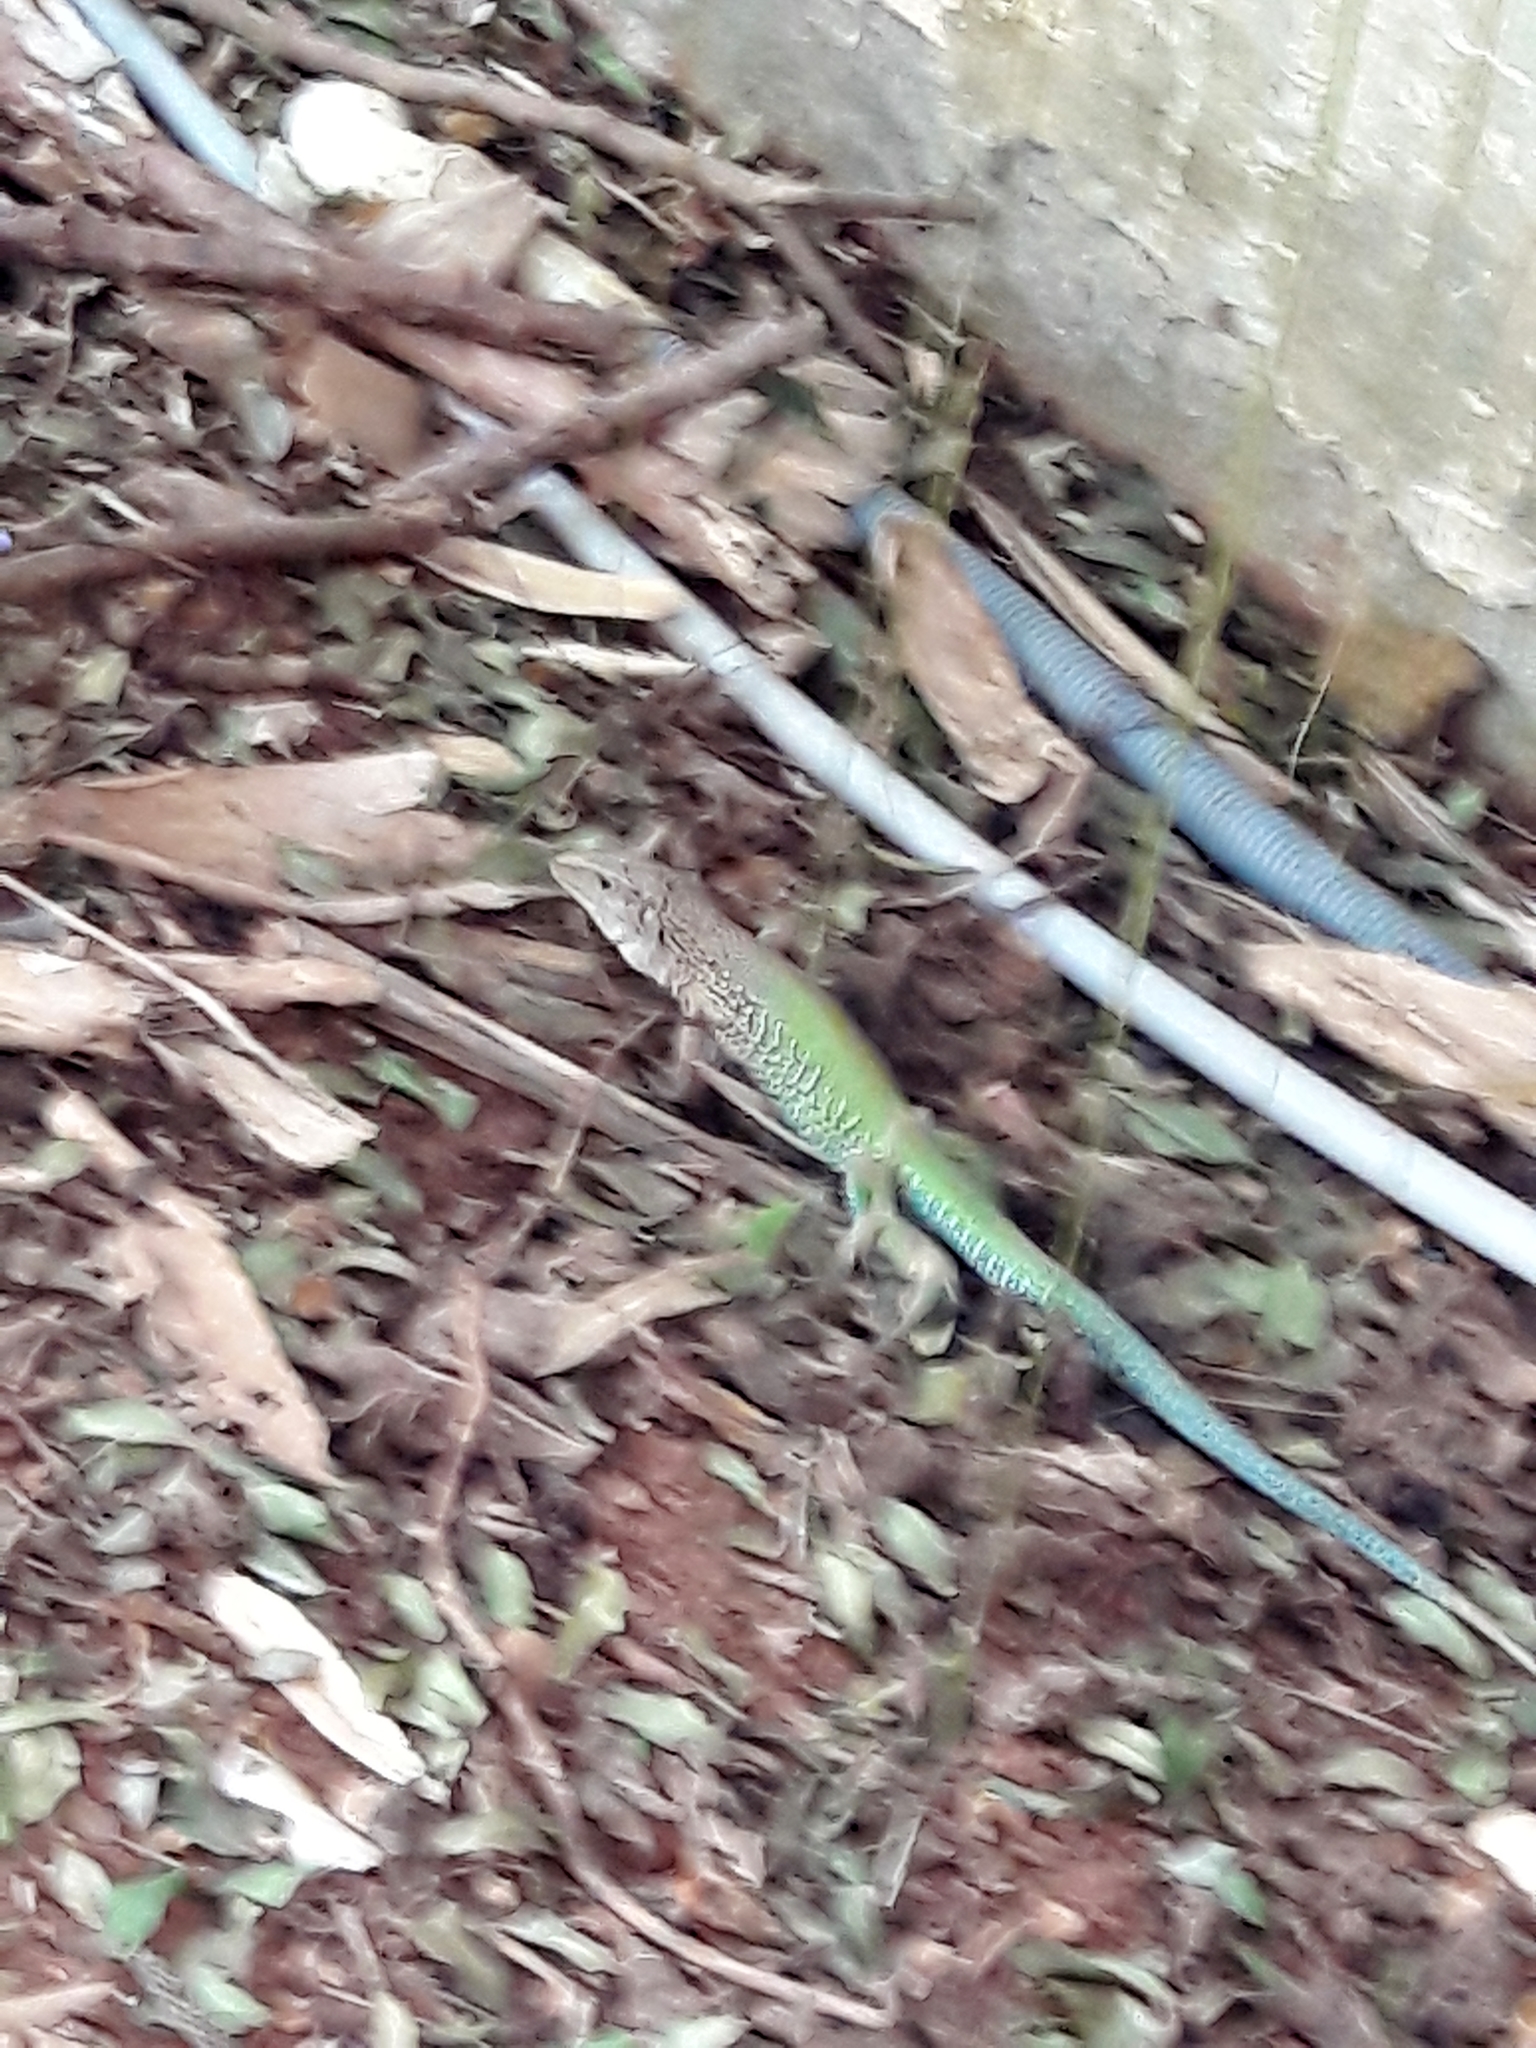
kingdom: Animalia
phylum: Chordata
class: Squamata
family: Teiidae
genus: Ameiva
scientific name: Ameiva ameiva
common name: Giant ameiva
